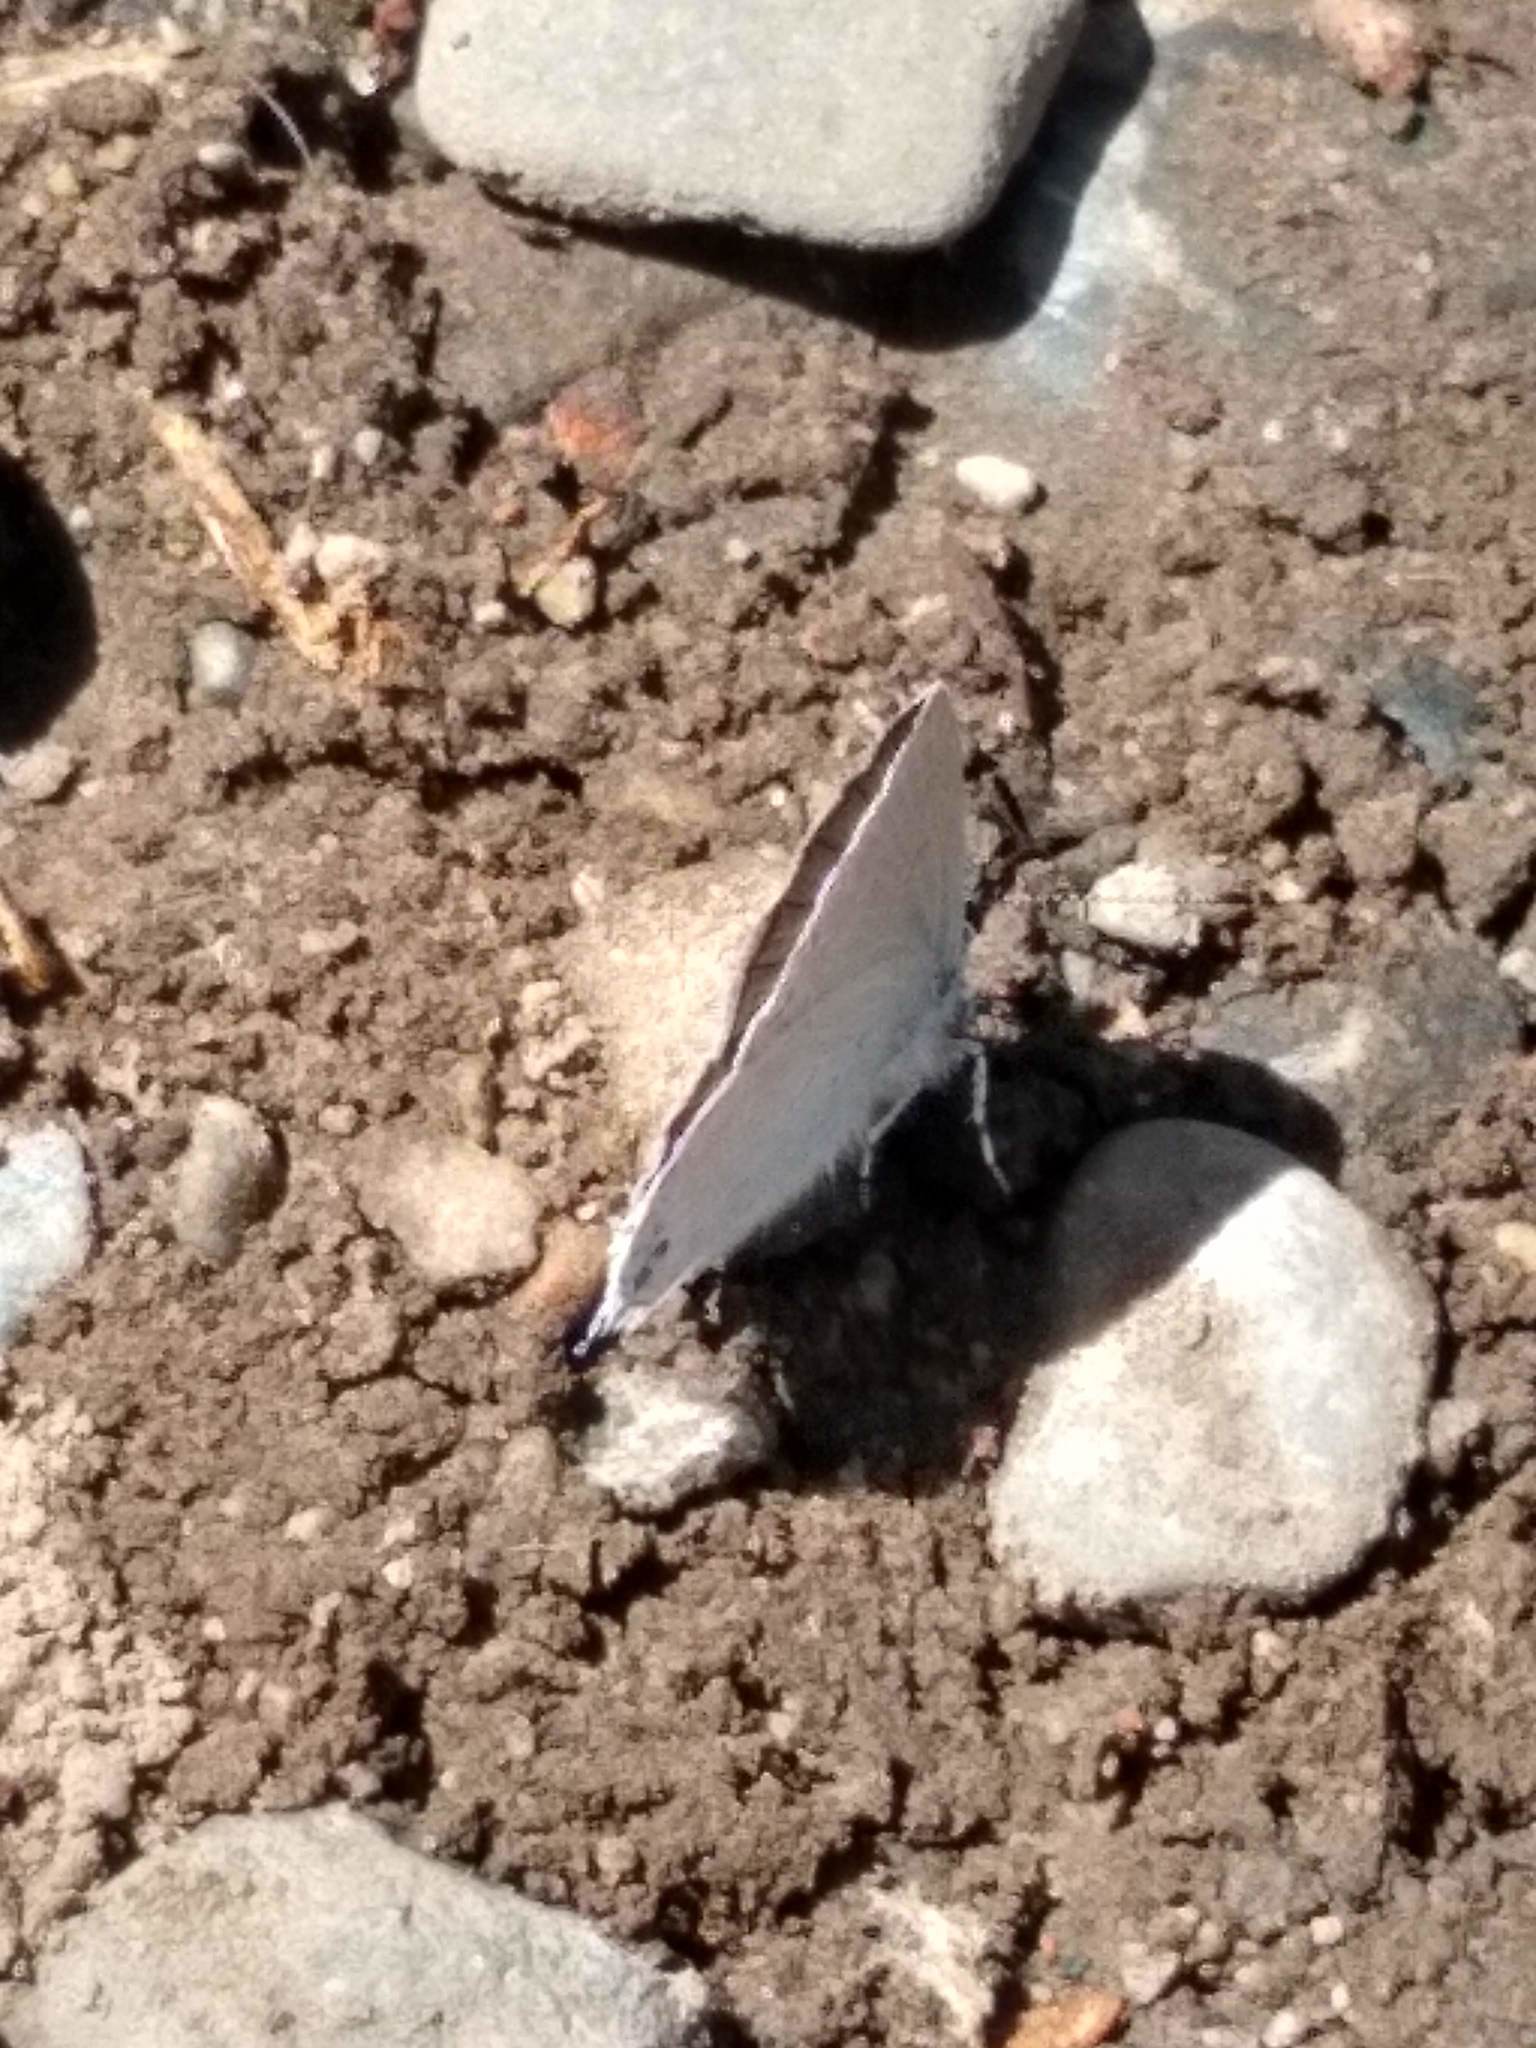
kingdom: Animalia
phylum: Arthropoda
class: Insecta
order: Lepidoptera
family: Lycaenidae
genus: Elkalyce
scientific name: Elkalyce amyntula
